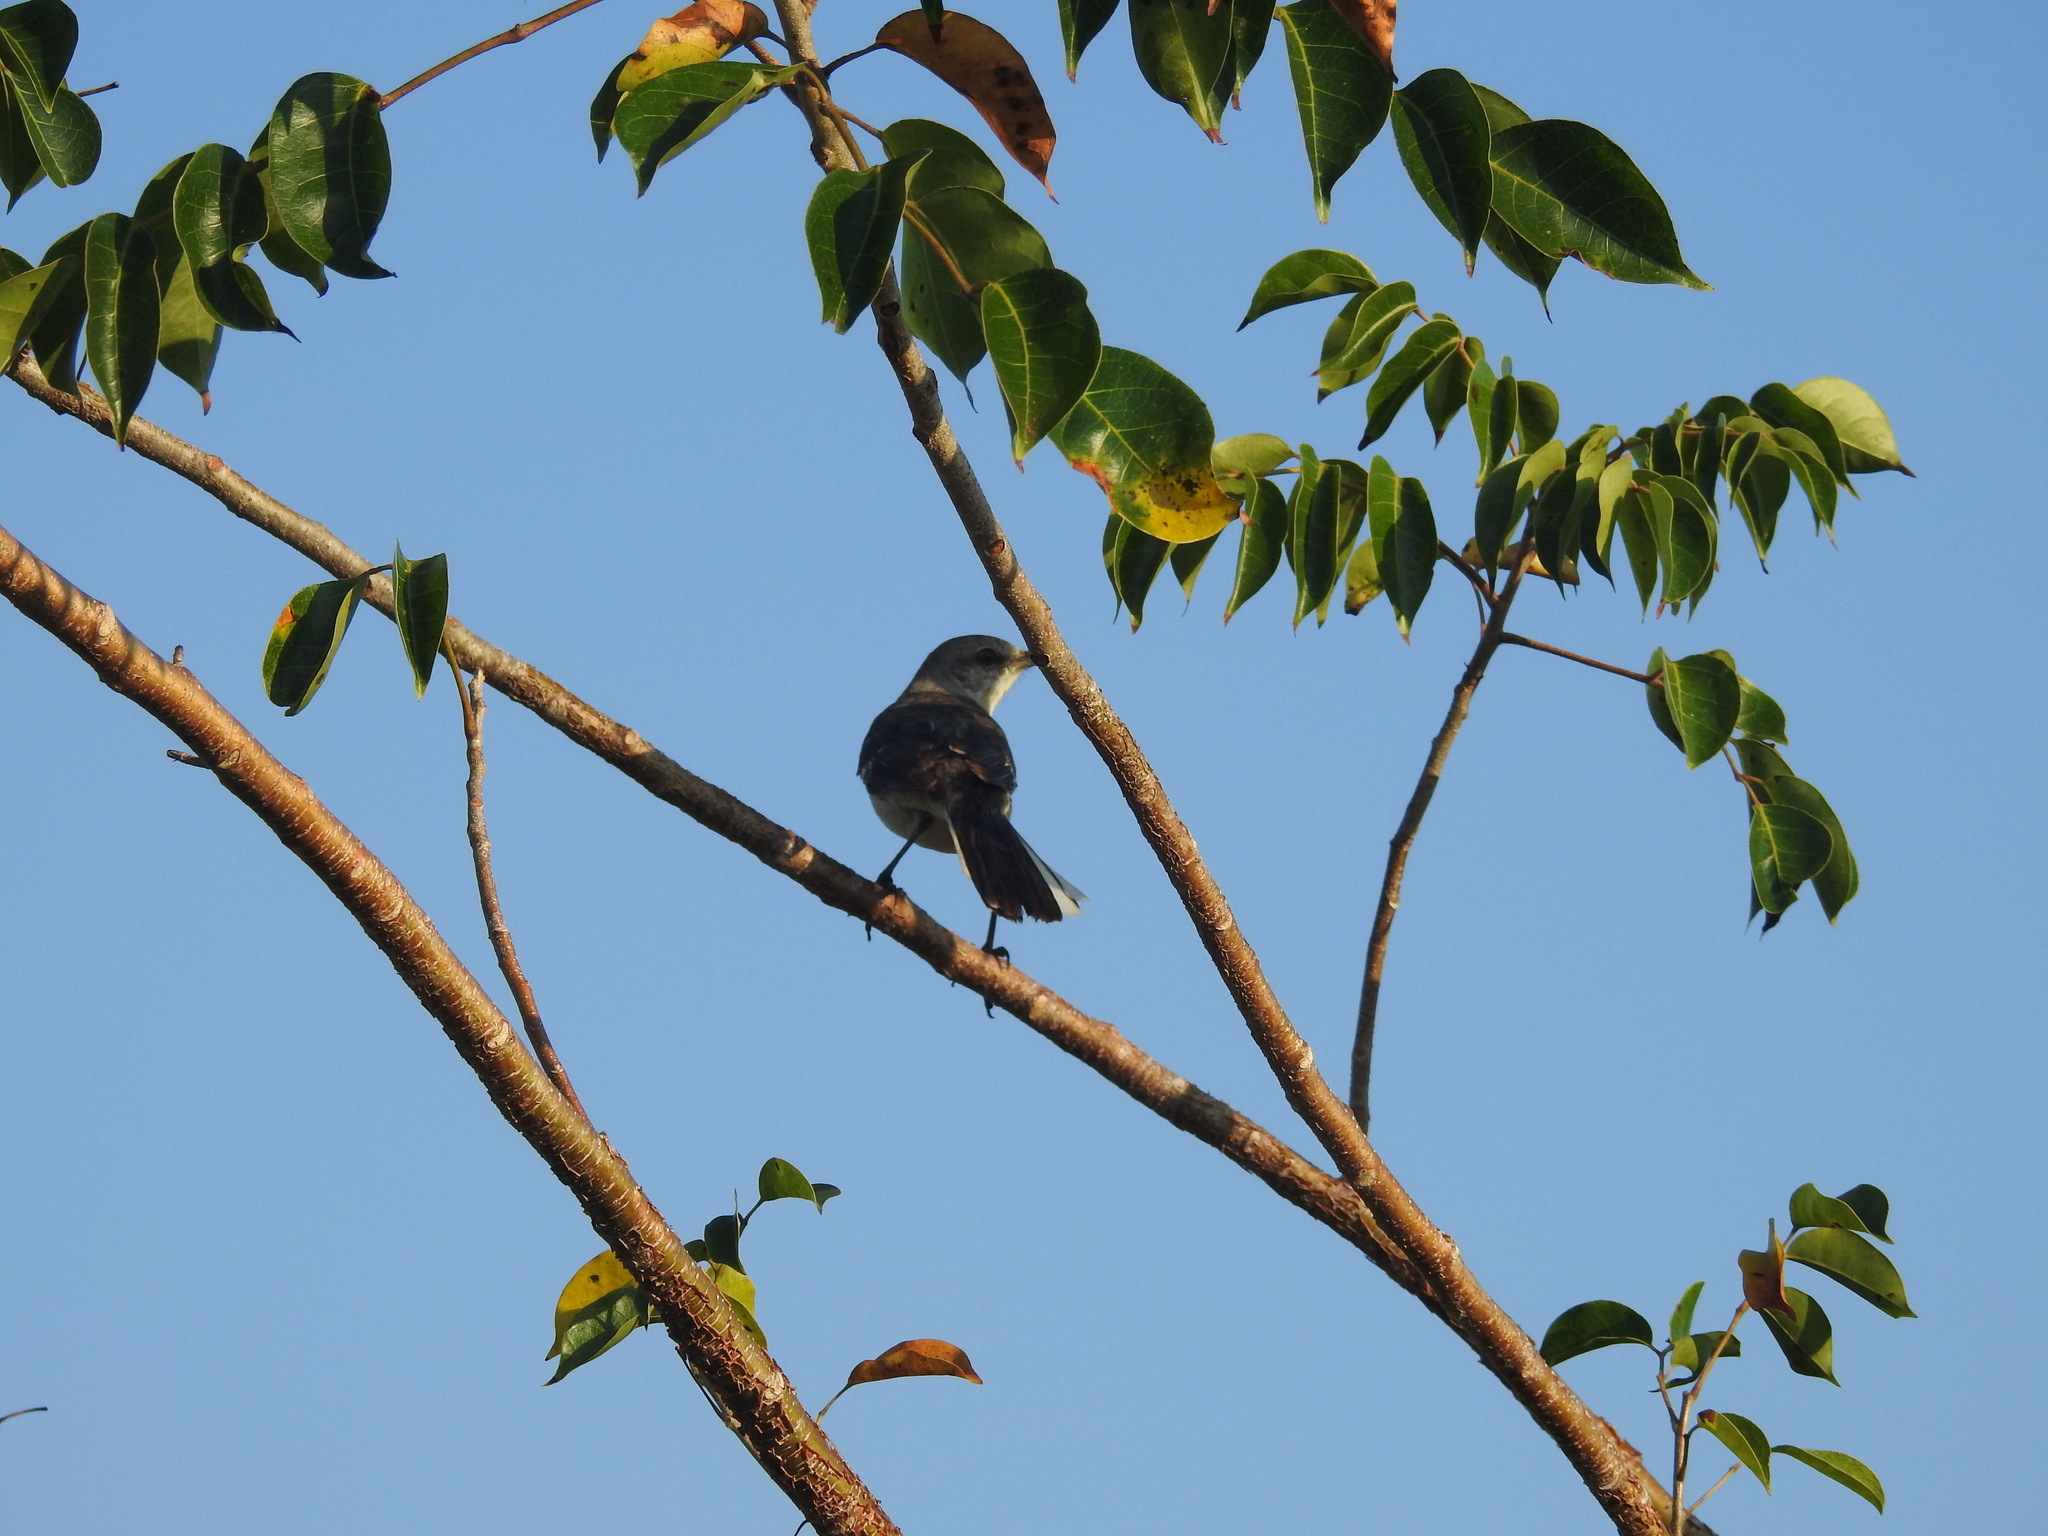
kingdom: Animalia
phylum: Chordata
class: Aves
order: Passeriformes
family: Mimidae
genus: Mimus
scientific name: Mimus polyglottos
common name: Northern mockingbird
